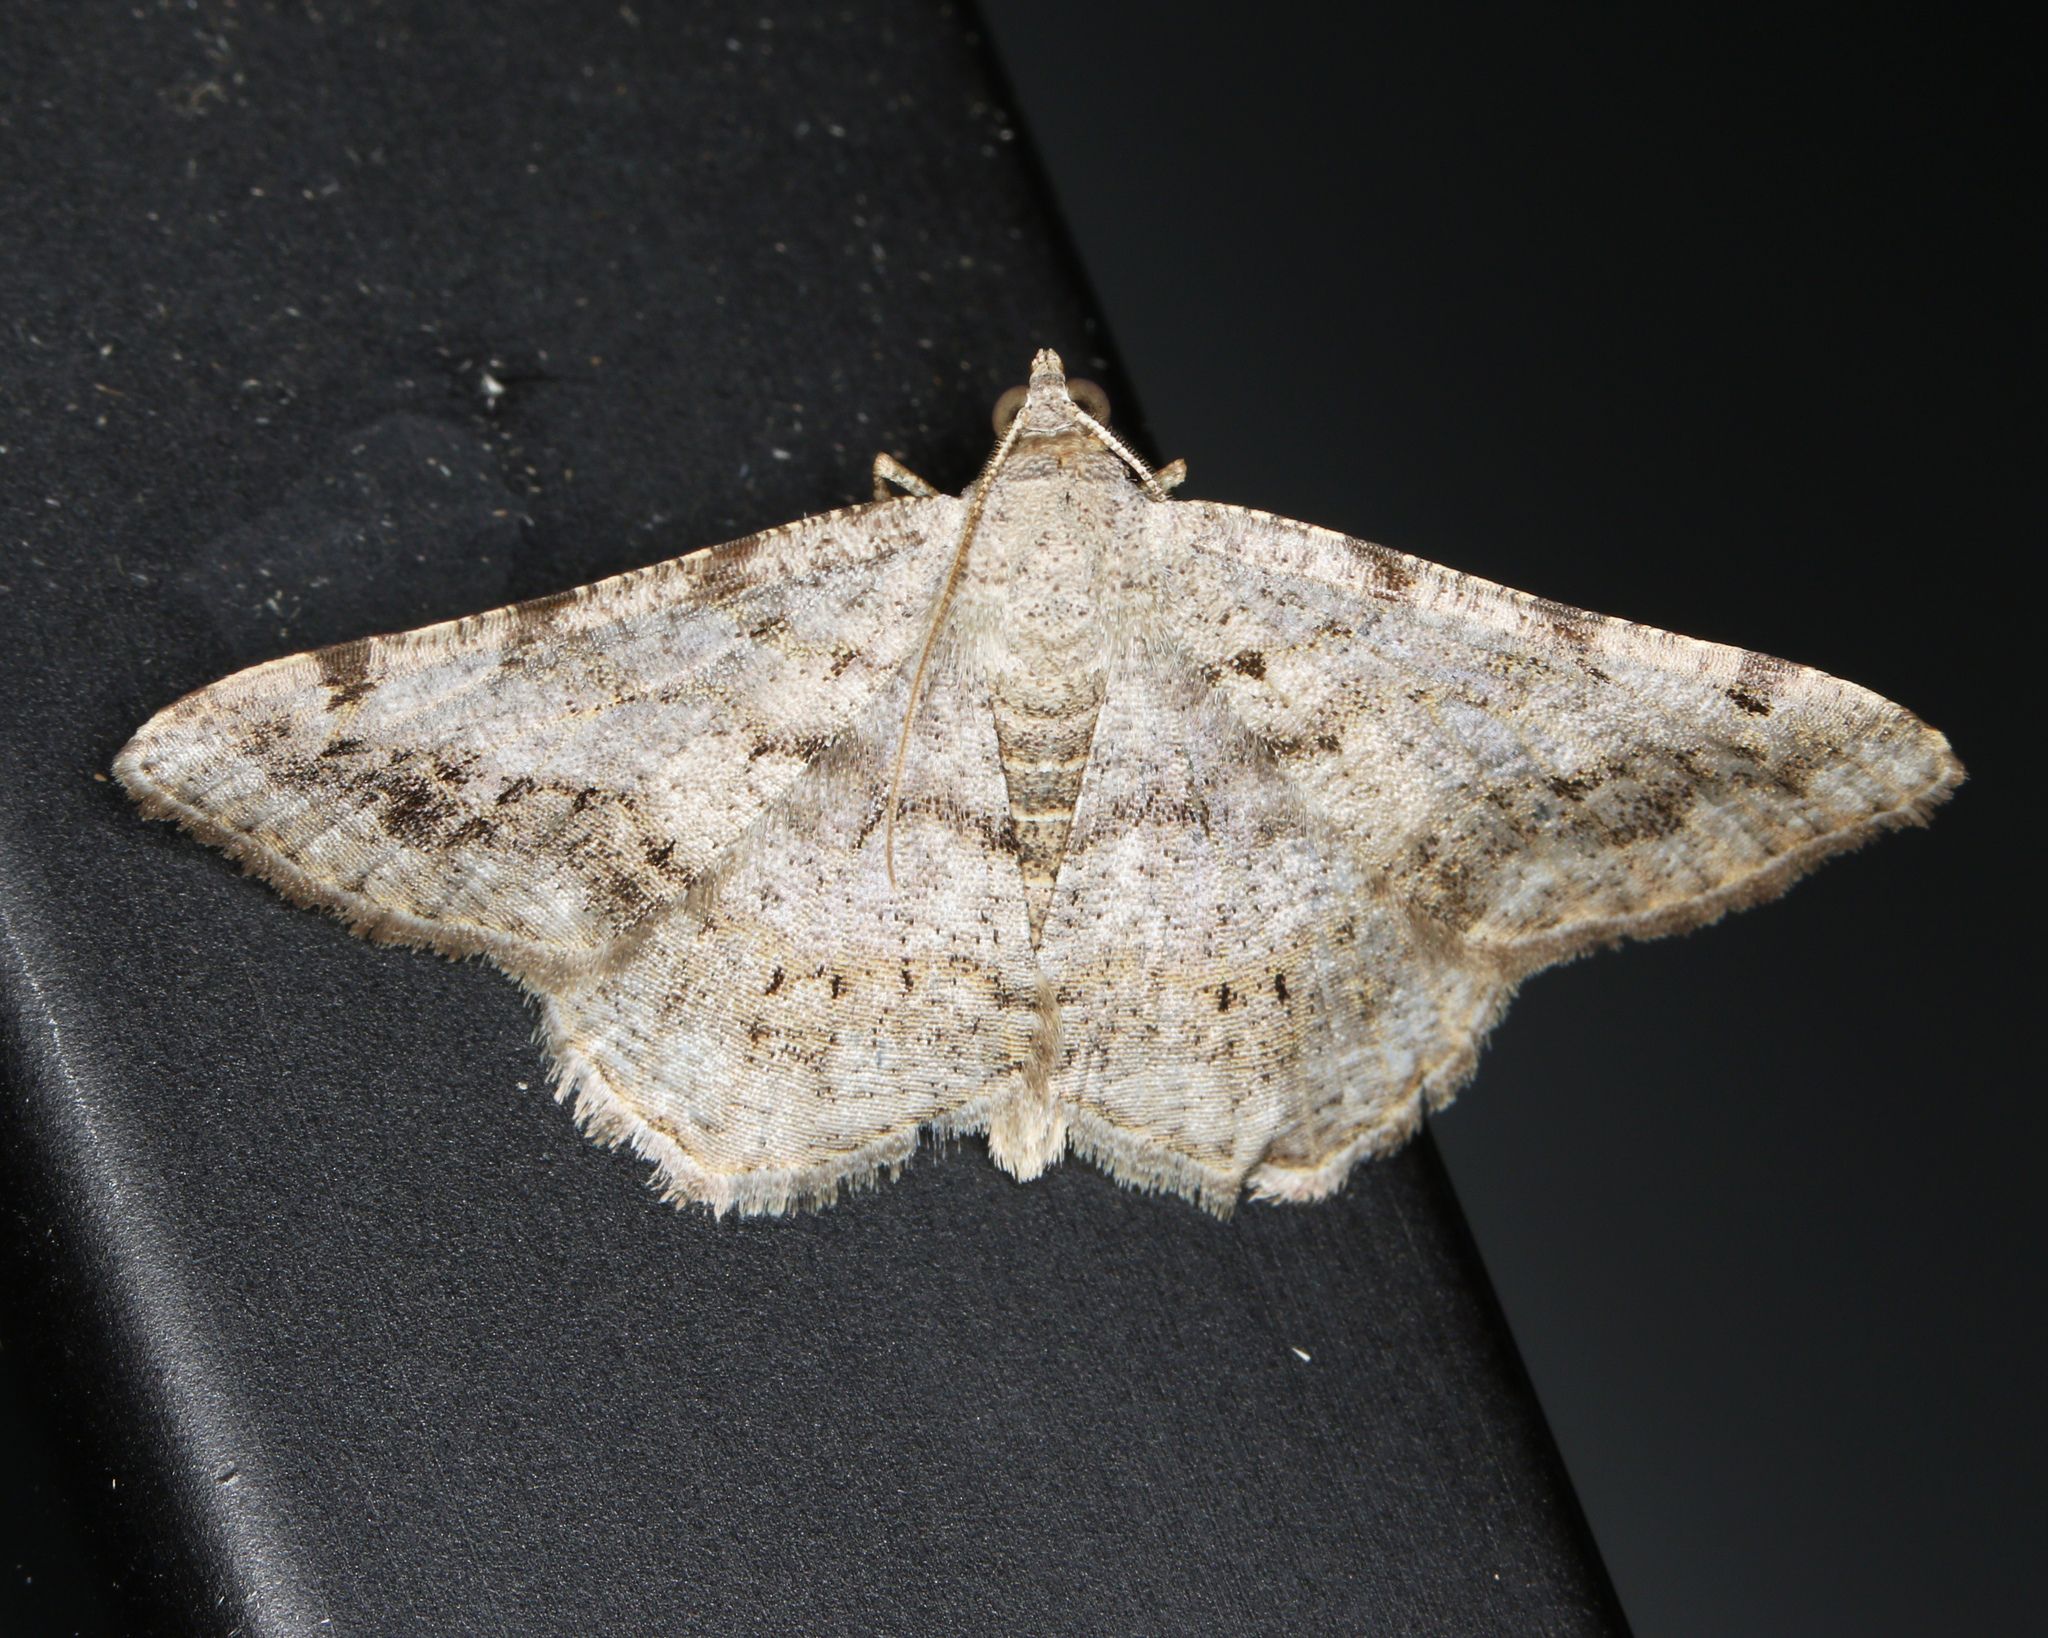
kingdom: Animalia
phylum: Arthropoda
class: Insecta
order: Lepidoptera
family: Geometridae
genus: Digrammia
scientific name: Digrammia ocellinata
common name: Faint-spotted angle
